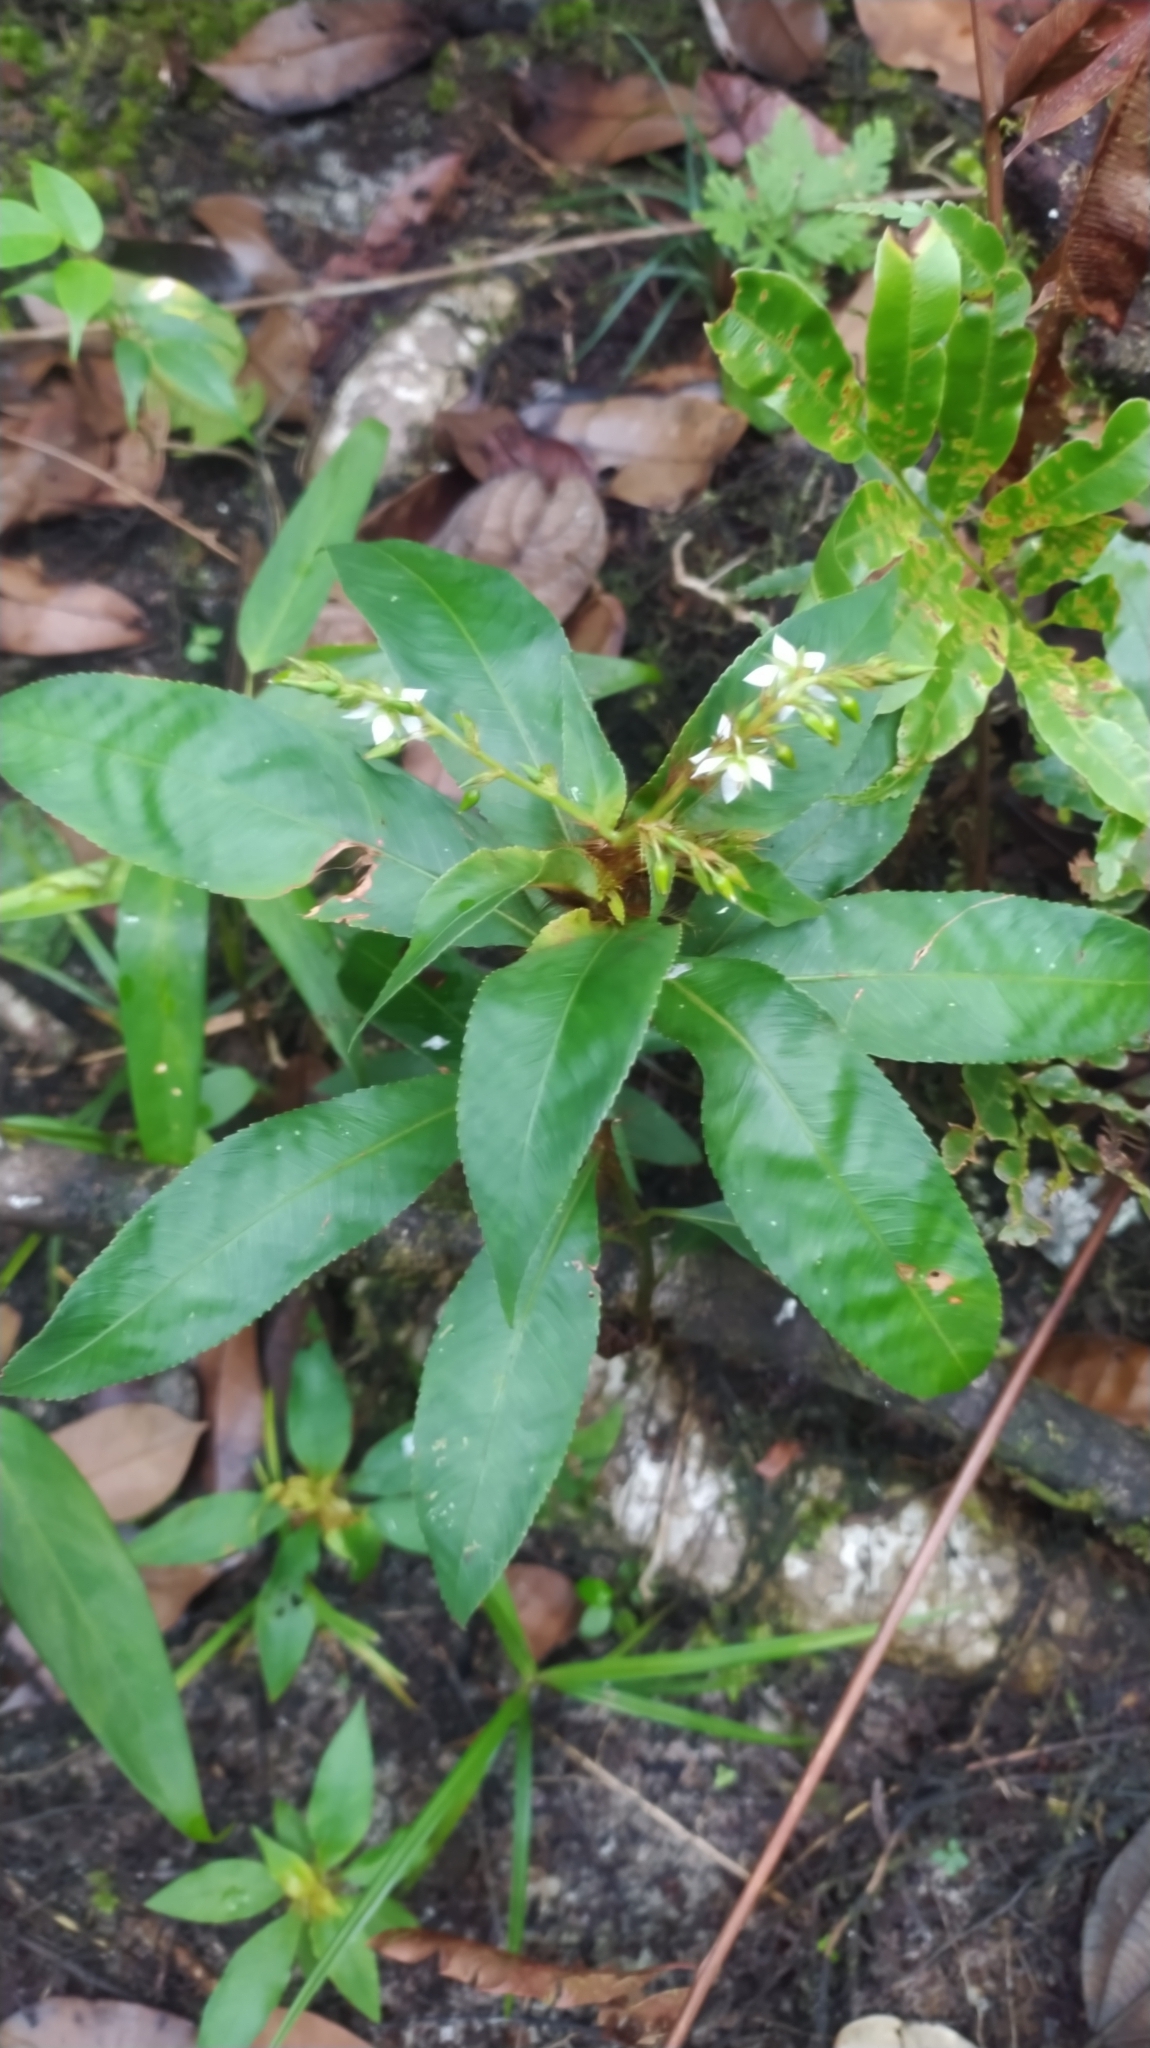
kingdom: Plantae
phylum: Tracheophyta
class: Magnoliopsida
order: Malpighiales
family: Ochnaceae
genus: Sauvagesia
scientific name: Sauvagesia elata
